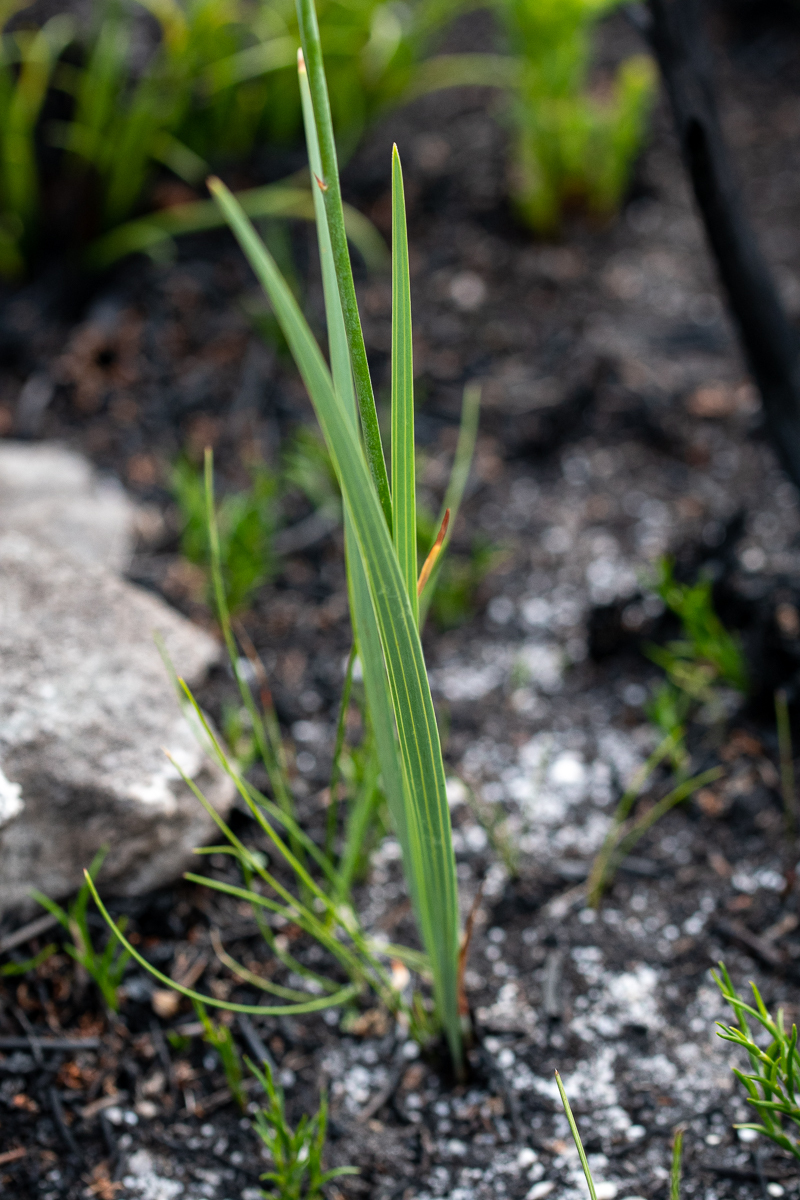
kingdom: Plantae
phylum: Tracheophyta
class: Liliopsida
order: Asparagales
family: Iridaceae
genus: Tritoniopsis
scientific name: Tritoniopsis lata
